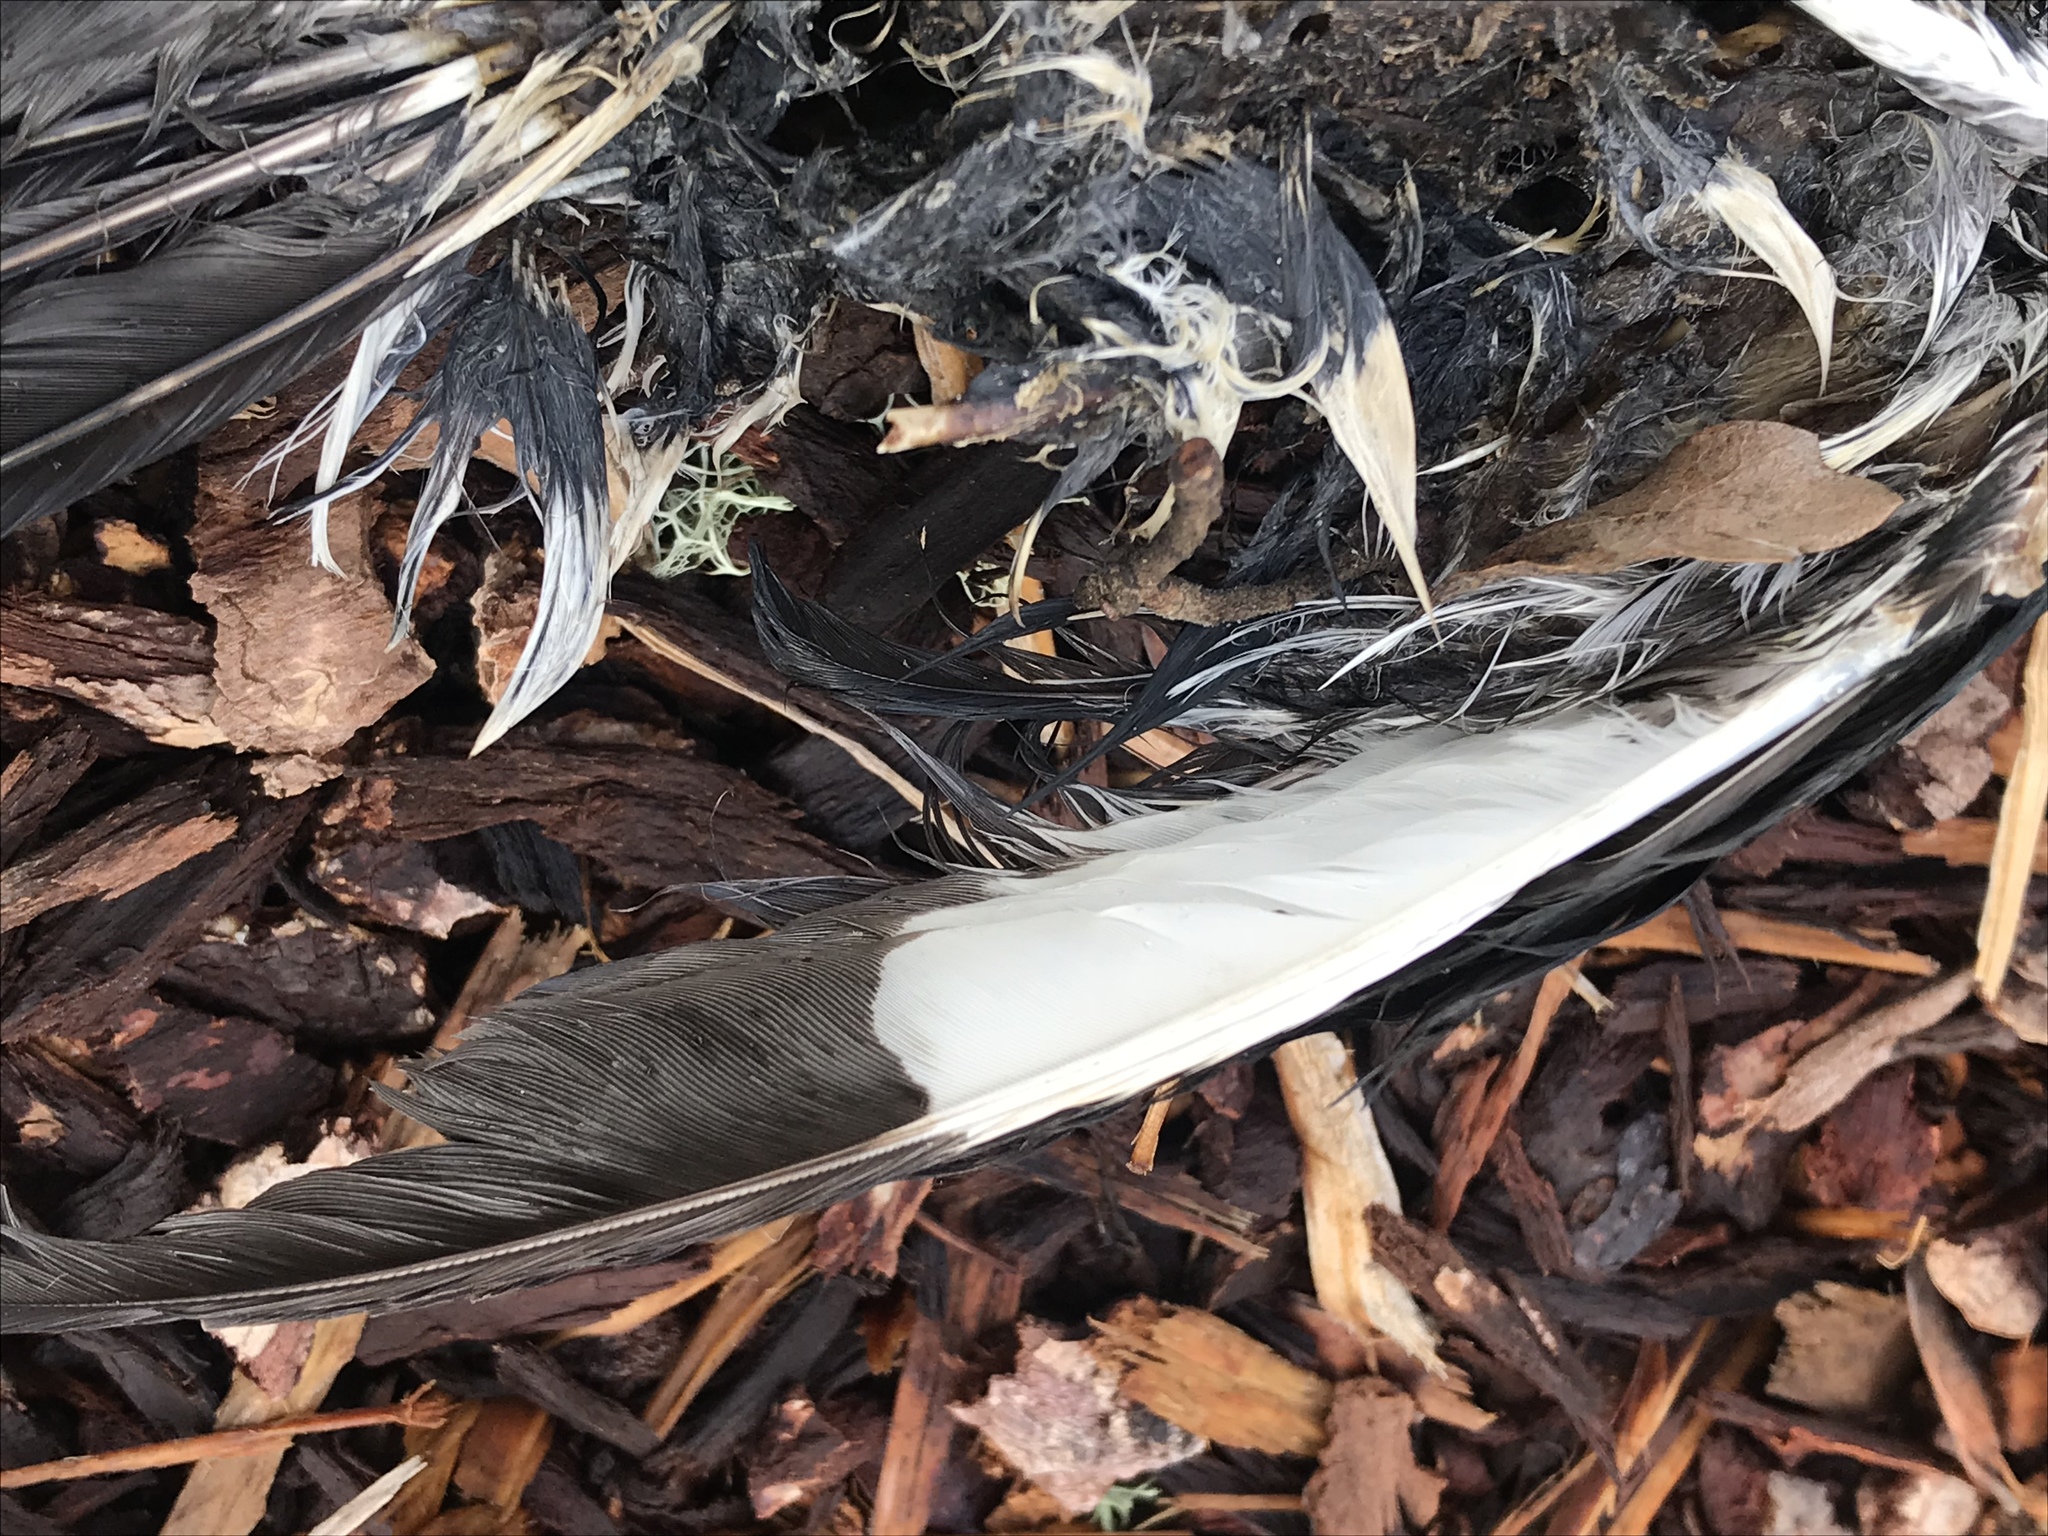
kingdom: Animalia
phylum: Chordata
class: Aves
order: Piciformes
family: Picidae
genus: Melanerpes
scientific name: Melanerpes formicivorus
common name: Acorn woodpecker
